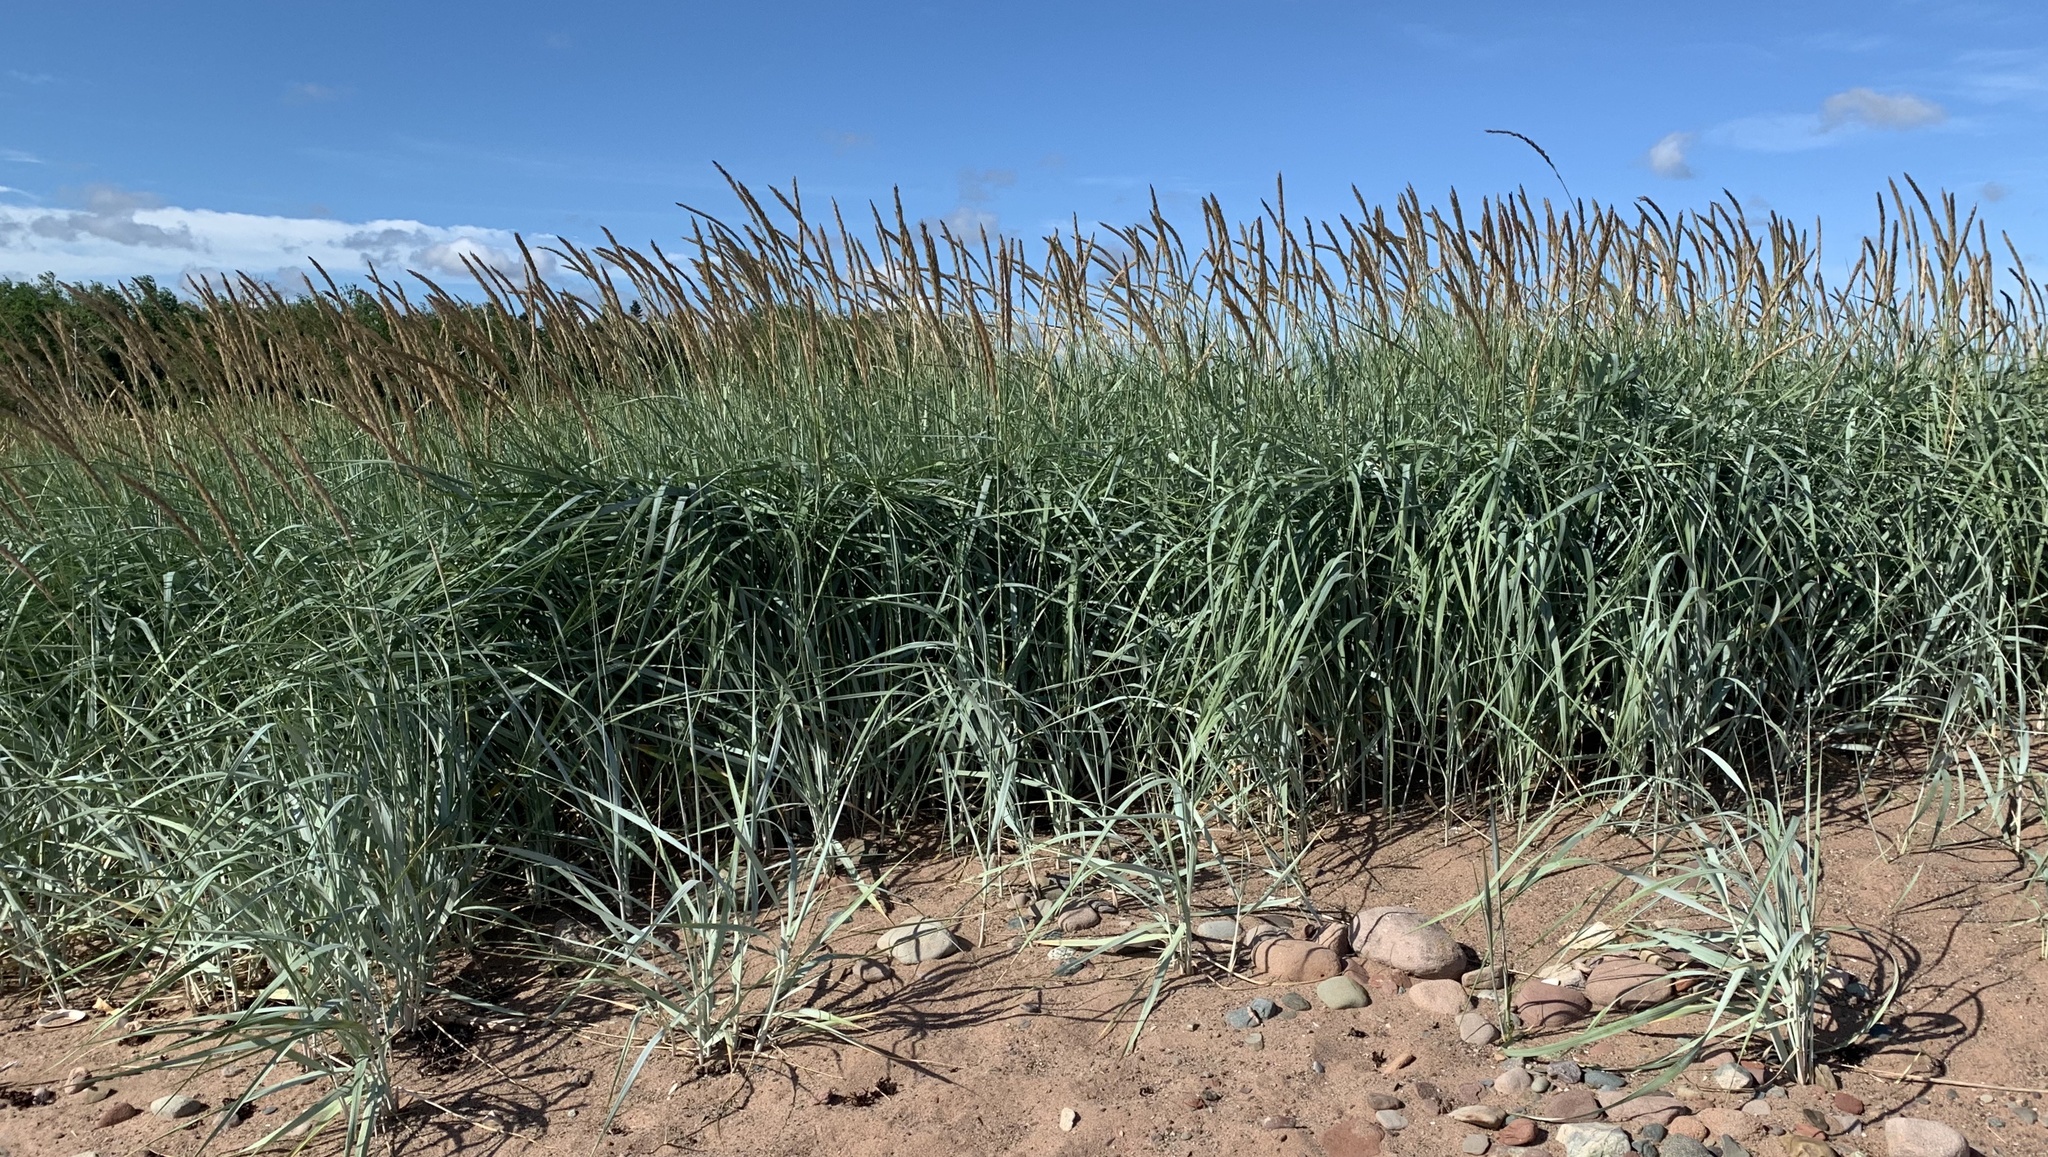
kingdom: Plantae
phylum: Tracheophyta
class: Liliopsida
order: Poales
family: Poaceae
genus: Leymus
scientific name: Leymus mollis
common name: American dune grass
